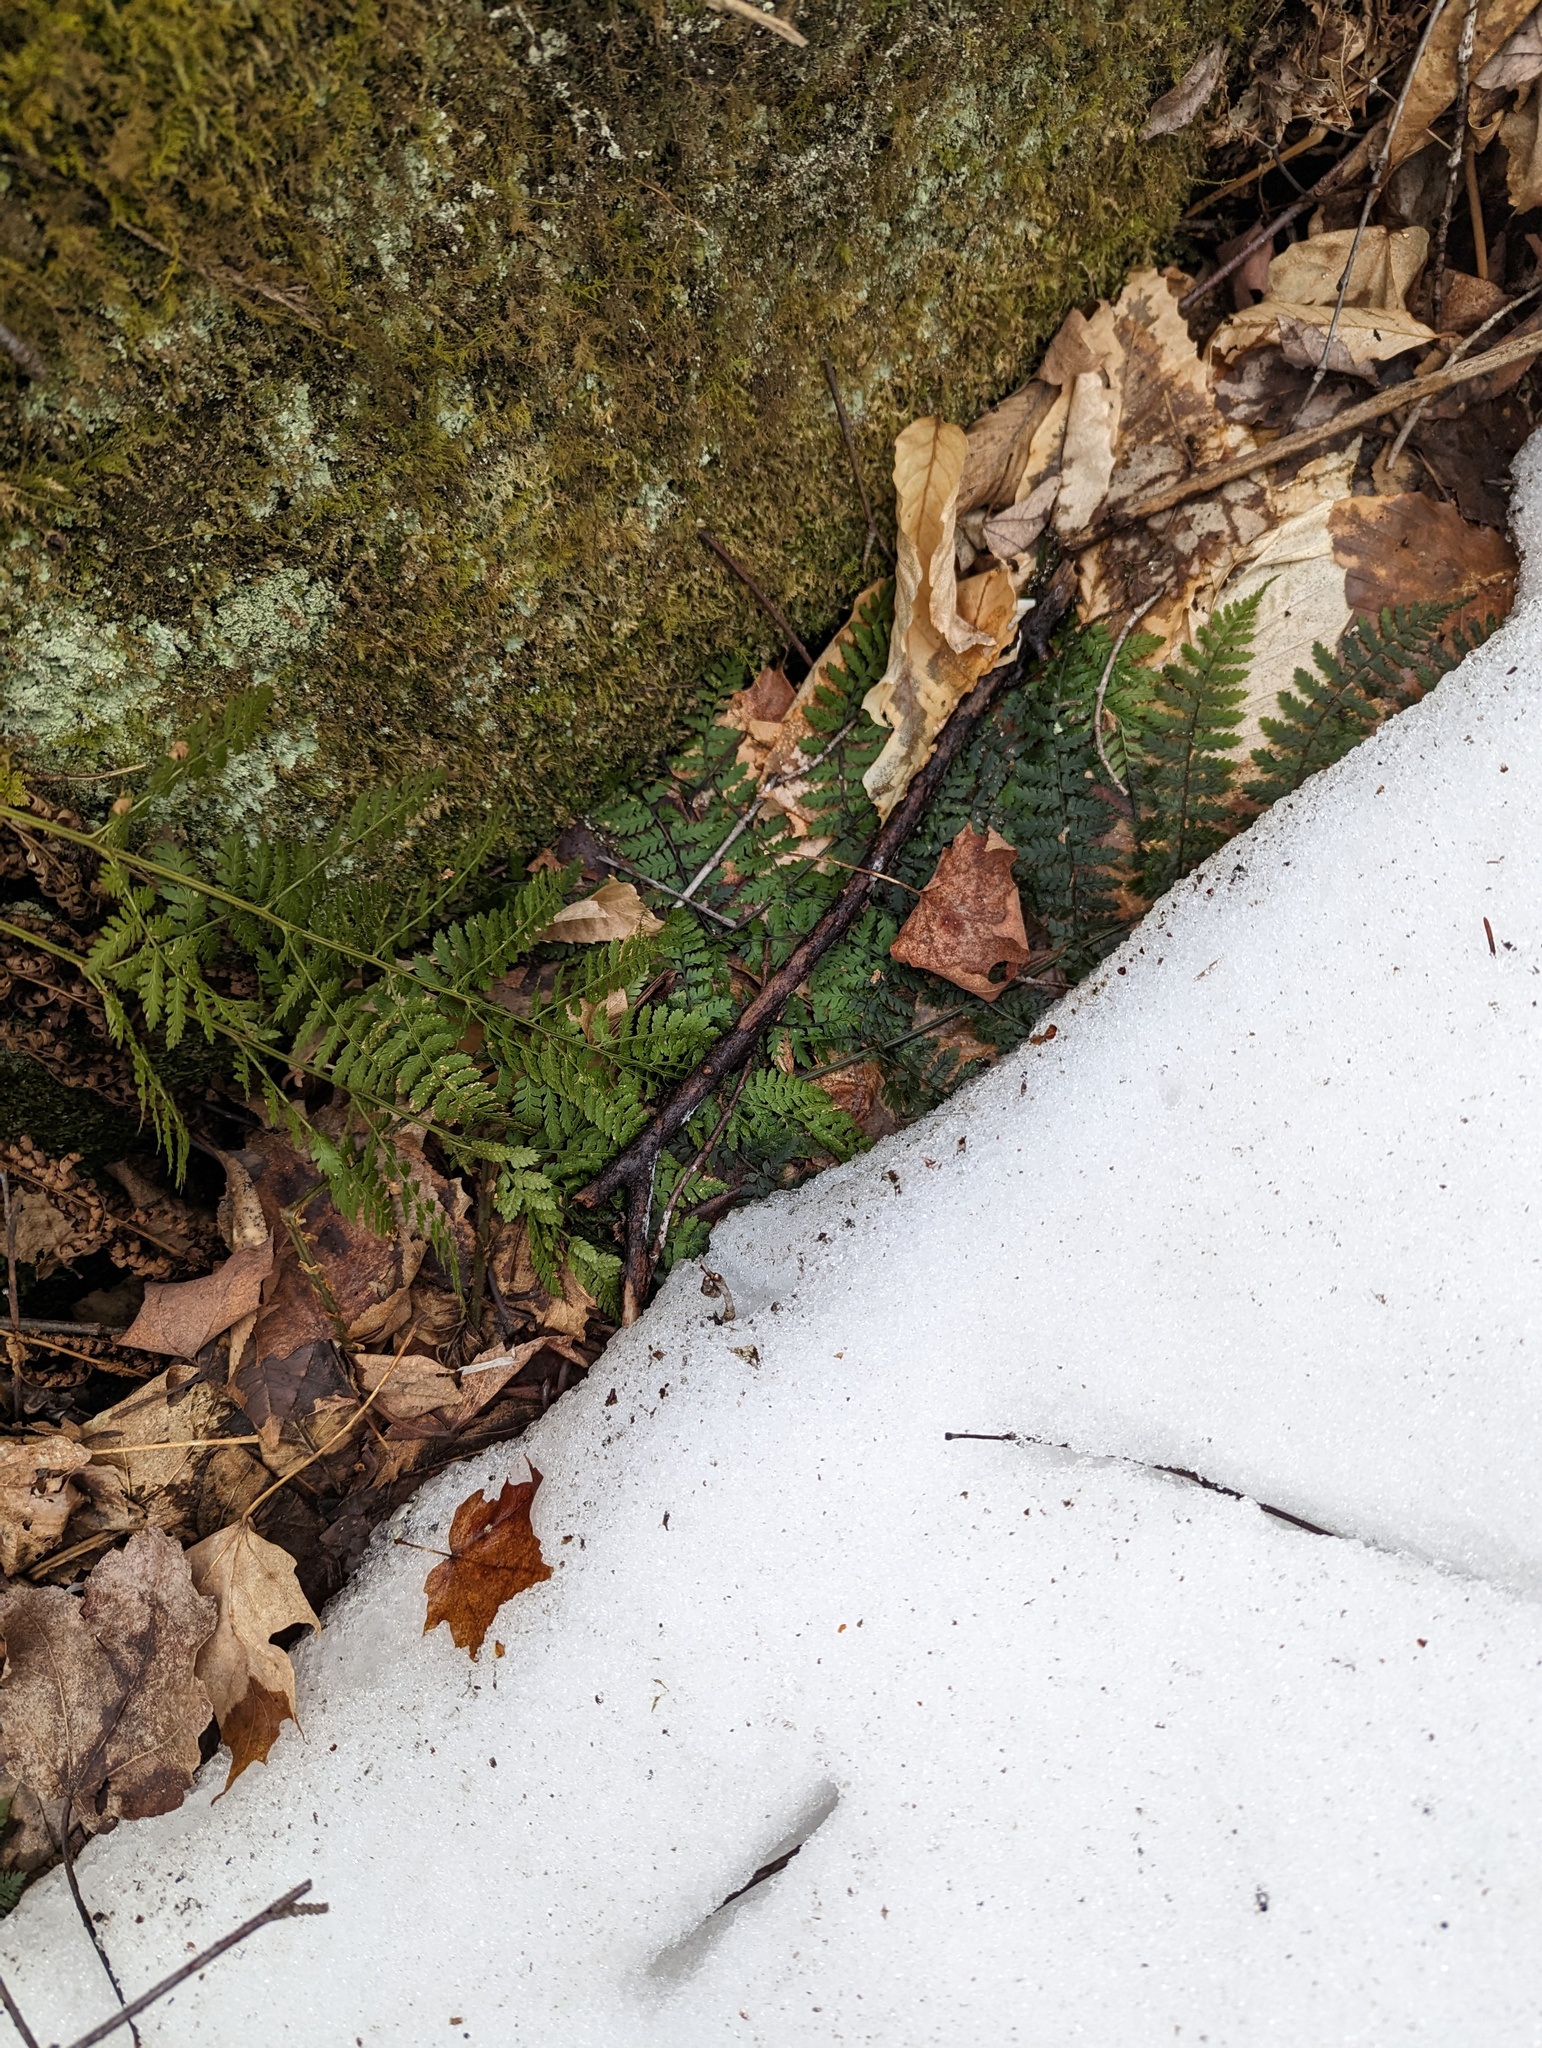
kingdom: Plantae
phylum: Tracheophyta
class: Polypodiopsida
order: Polypodiales
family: Dryopteridaceae
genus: Dryopteris
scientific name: Dryopteris intermedia
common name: Evergreen wood fern
